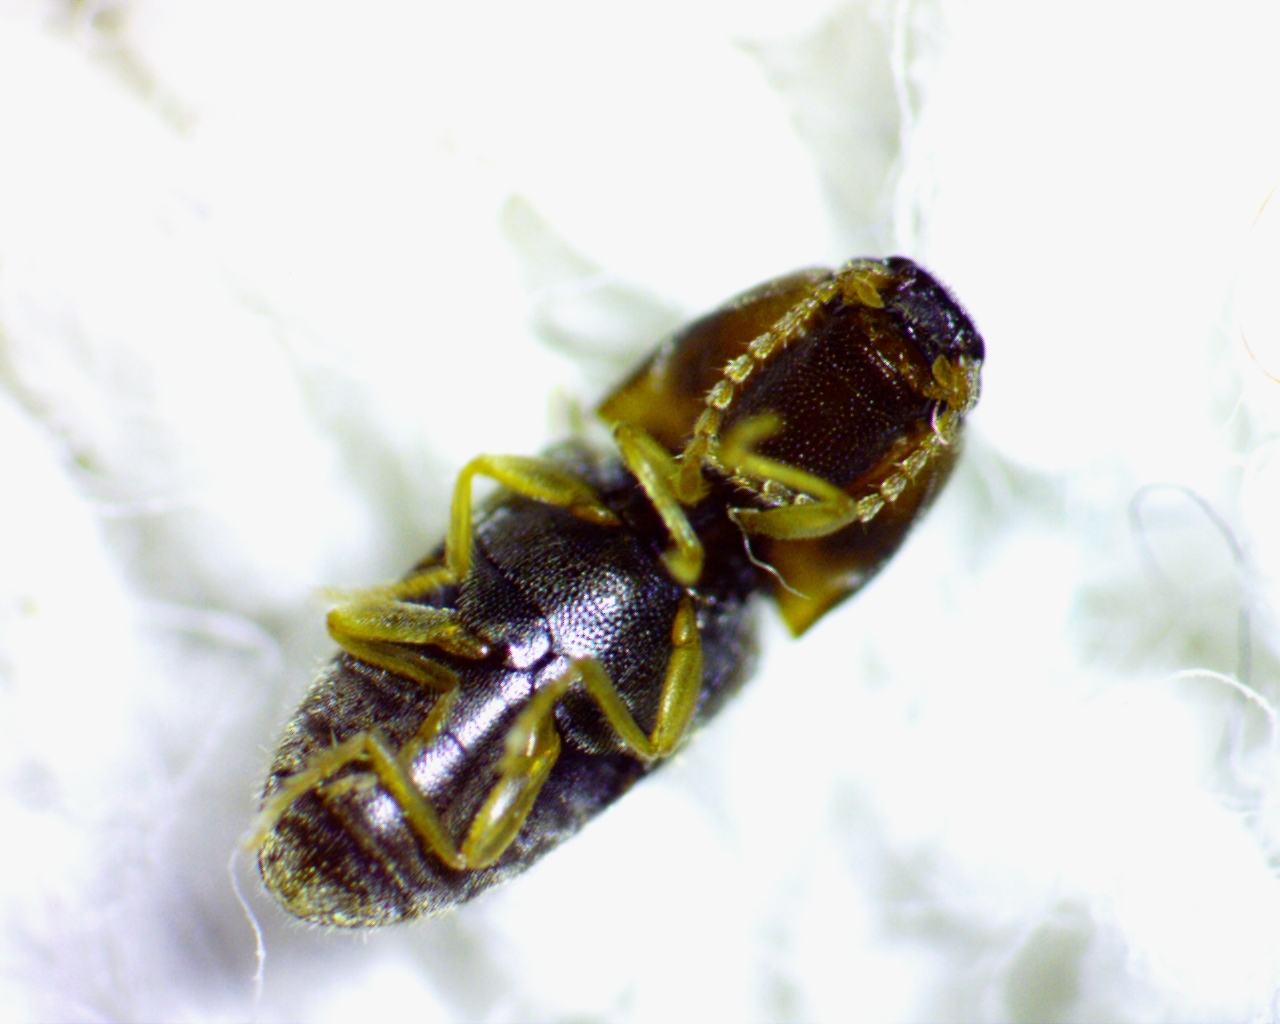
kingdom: Animalia
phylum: Arthropoda
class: Insecta
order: Coleoptera
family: Elateridae
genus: Monocrepidius
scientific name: Monocrepidius bellus
